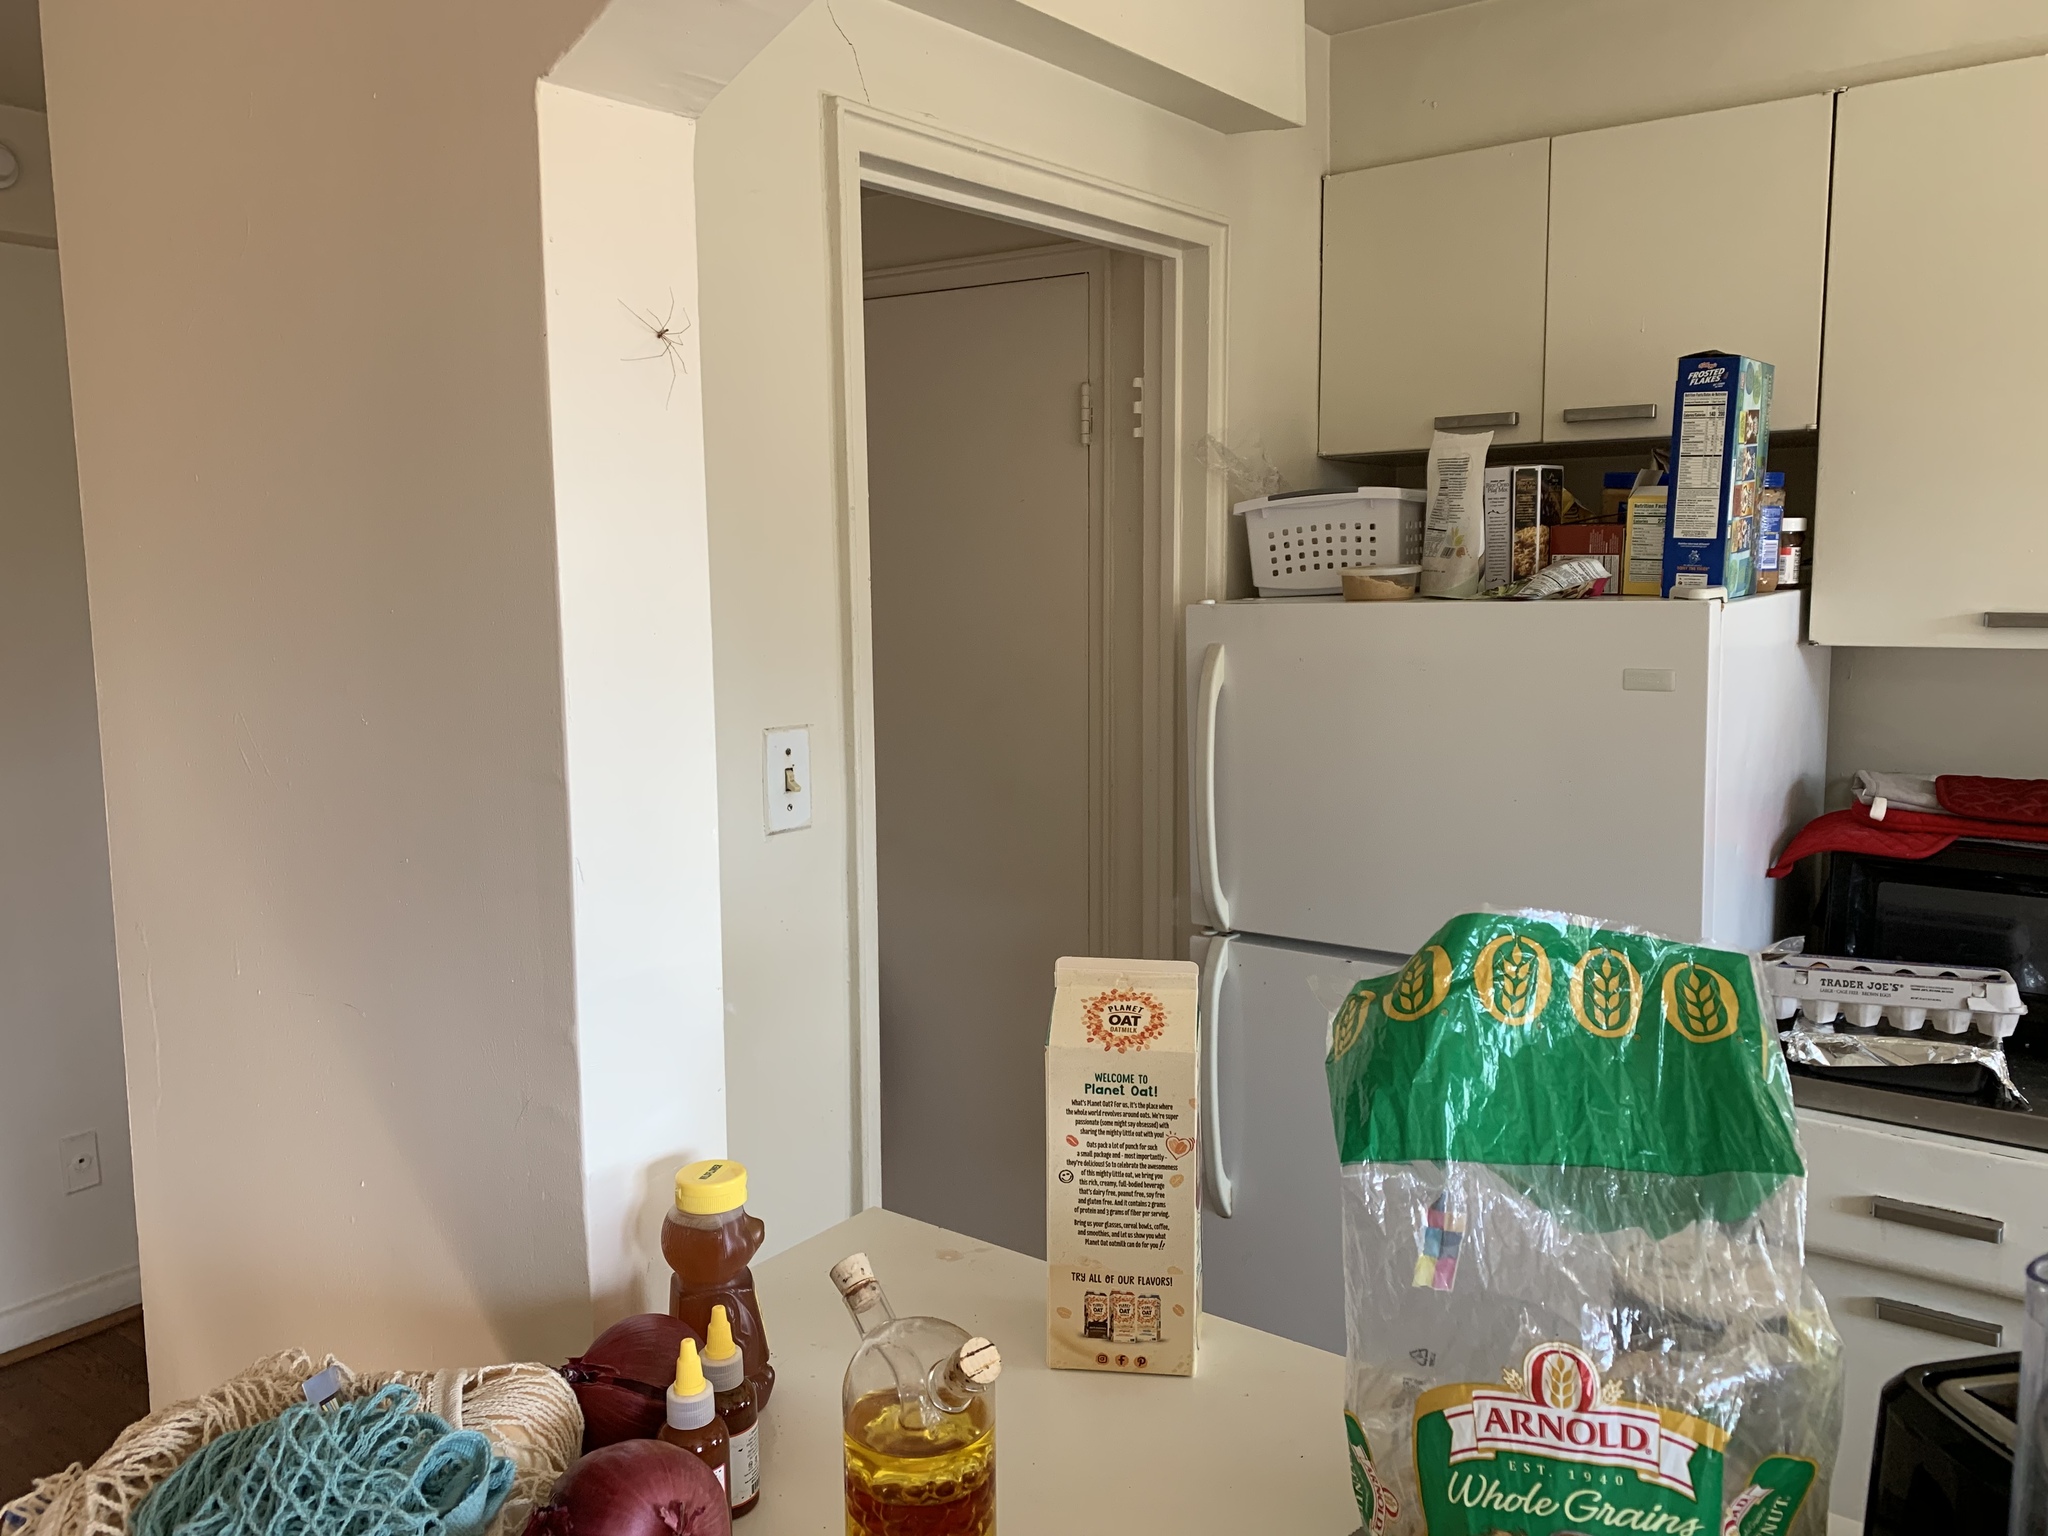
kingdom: Animalia
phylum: Arthropoda
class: Arachnida
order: Araneae
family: Pholcidae
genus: Pholcus
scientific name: Pholcus phalangioides
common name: Longbodied cellar spider
